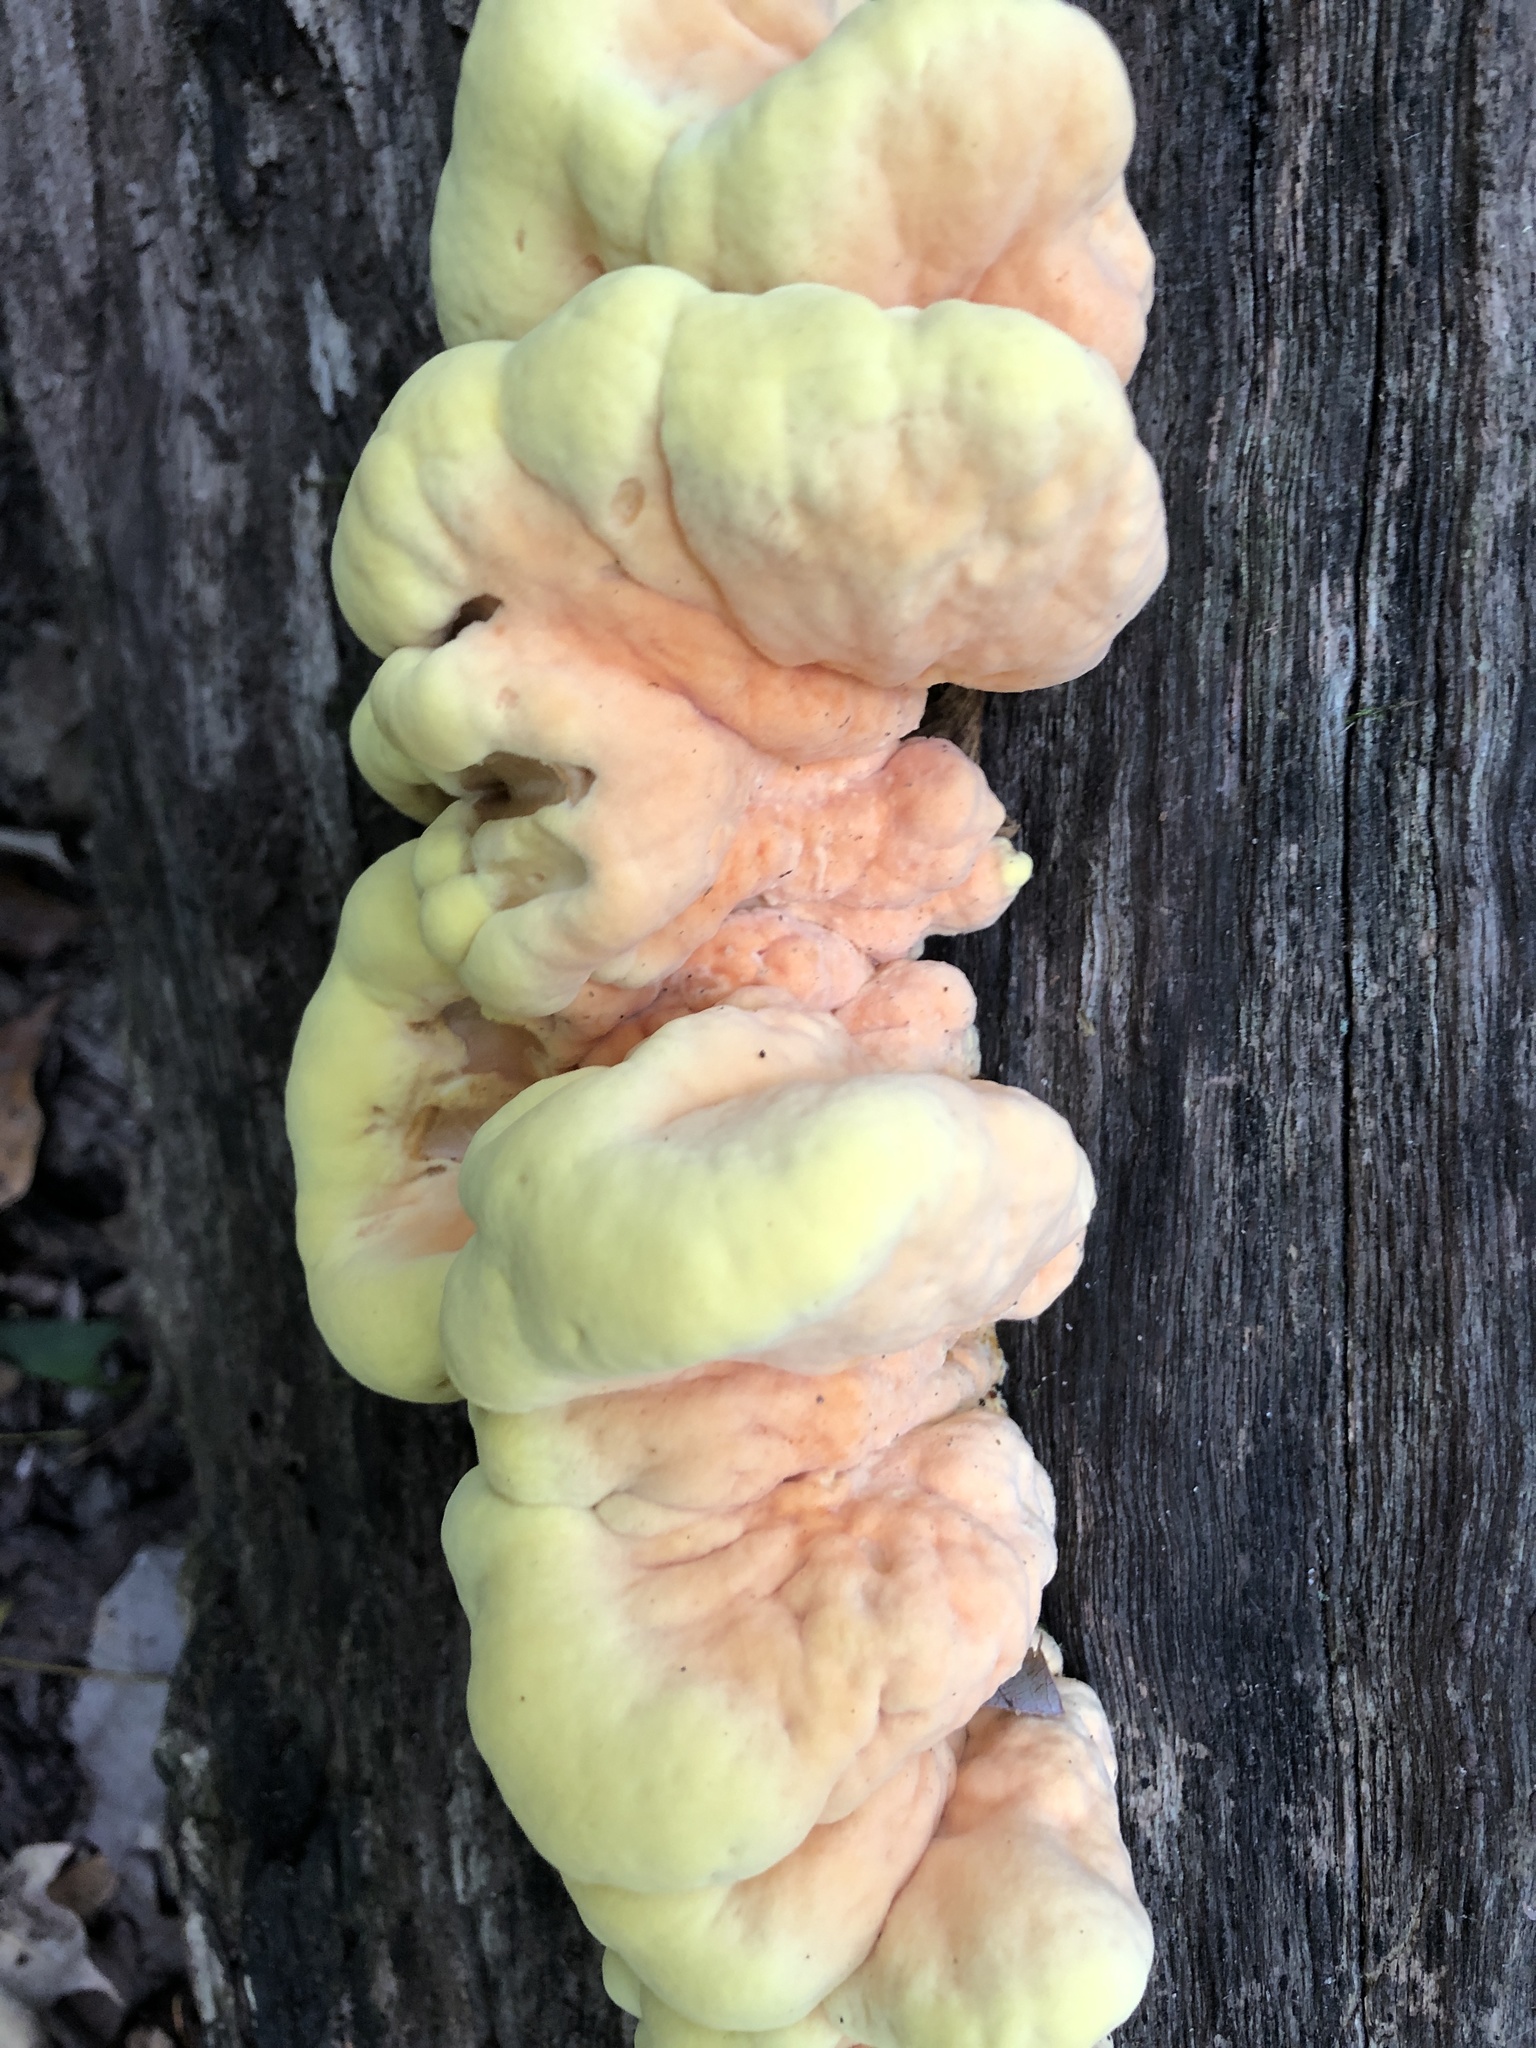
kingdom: Fungi
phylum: Basidiomycota
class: Agaricomycetes
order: Polyporales
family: Laetiporaceae
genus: Laetiporus
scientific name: Laetiporus sulphureus
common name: Chicken of the woods
